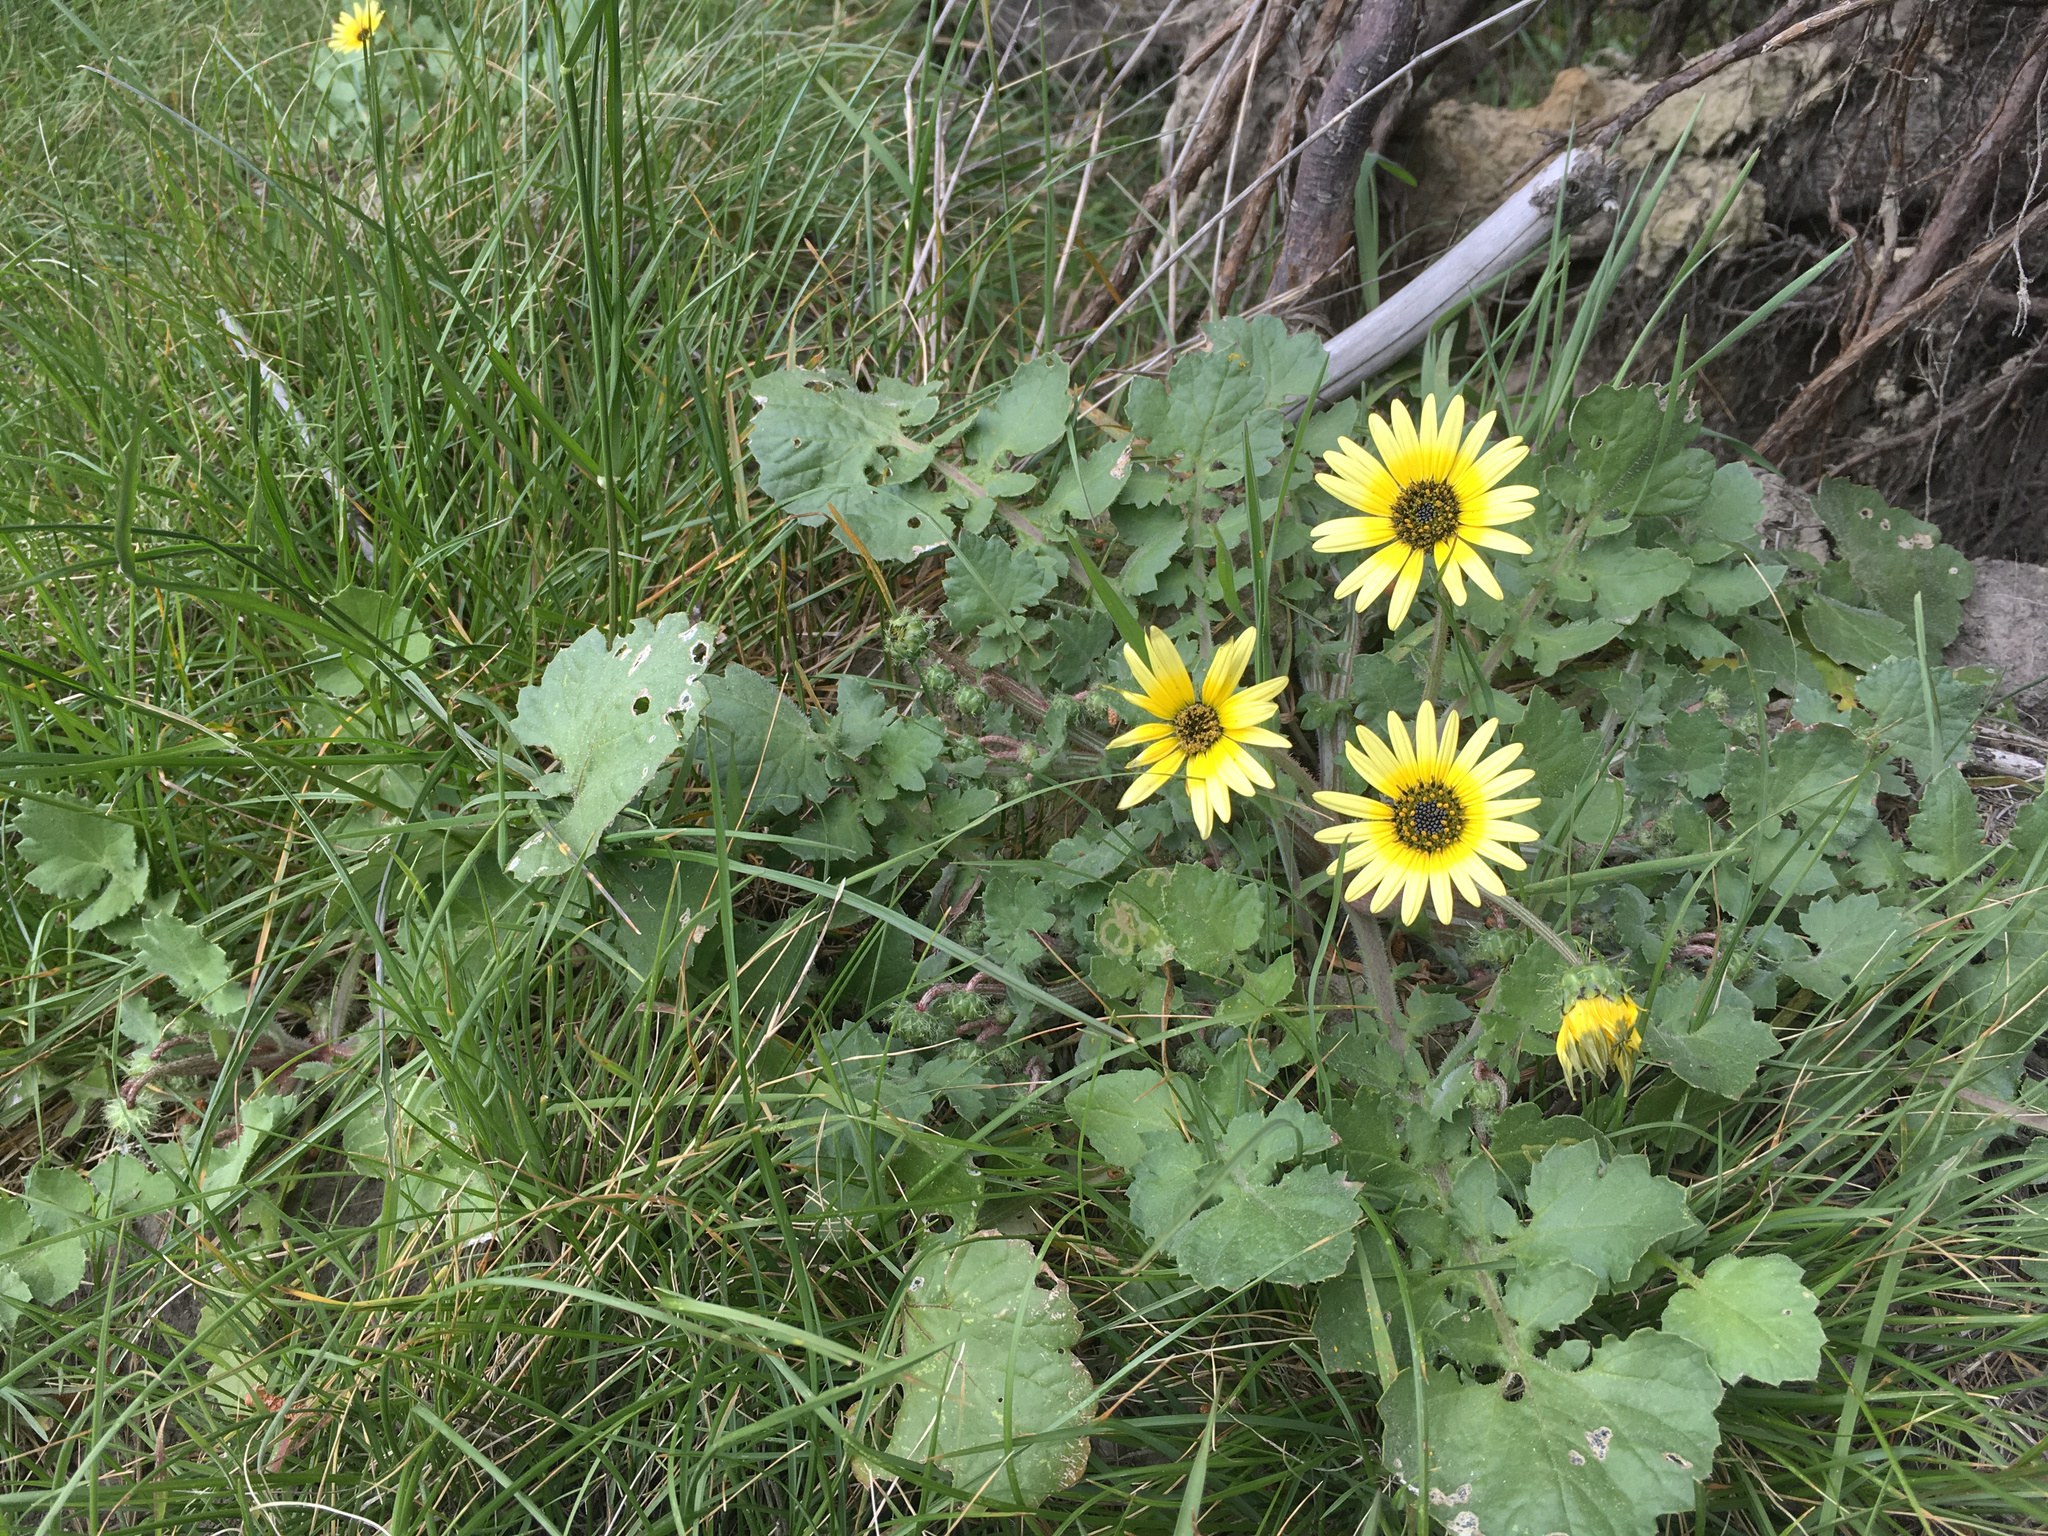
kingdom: Plantae
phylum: Tracheophyta
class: Magnoliopsida
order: Asterales
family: Asteraceae
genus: Arctotheca
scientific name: Arctotheca calendula
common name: Capeweed
